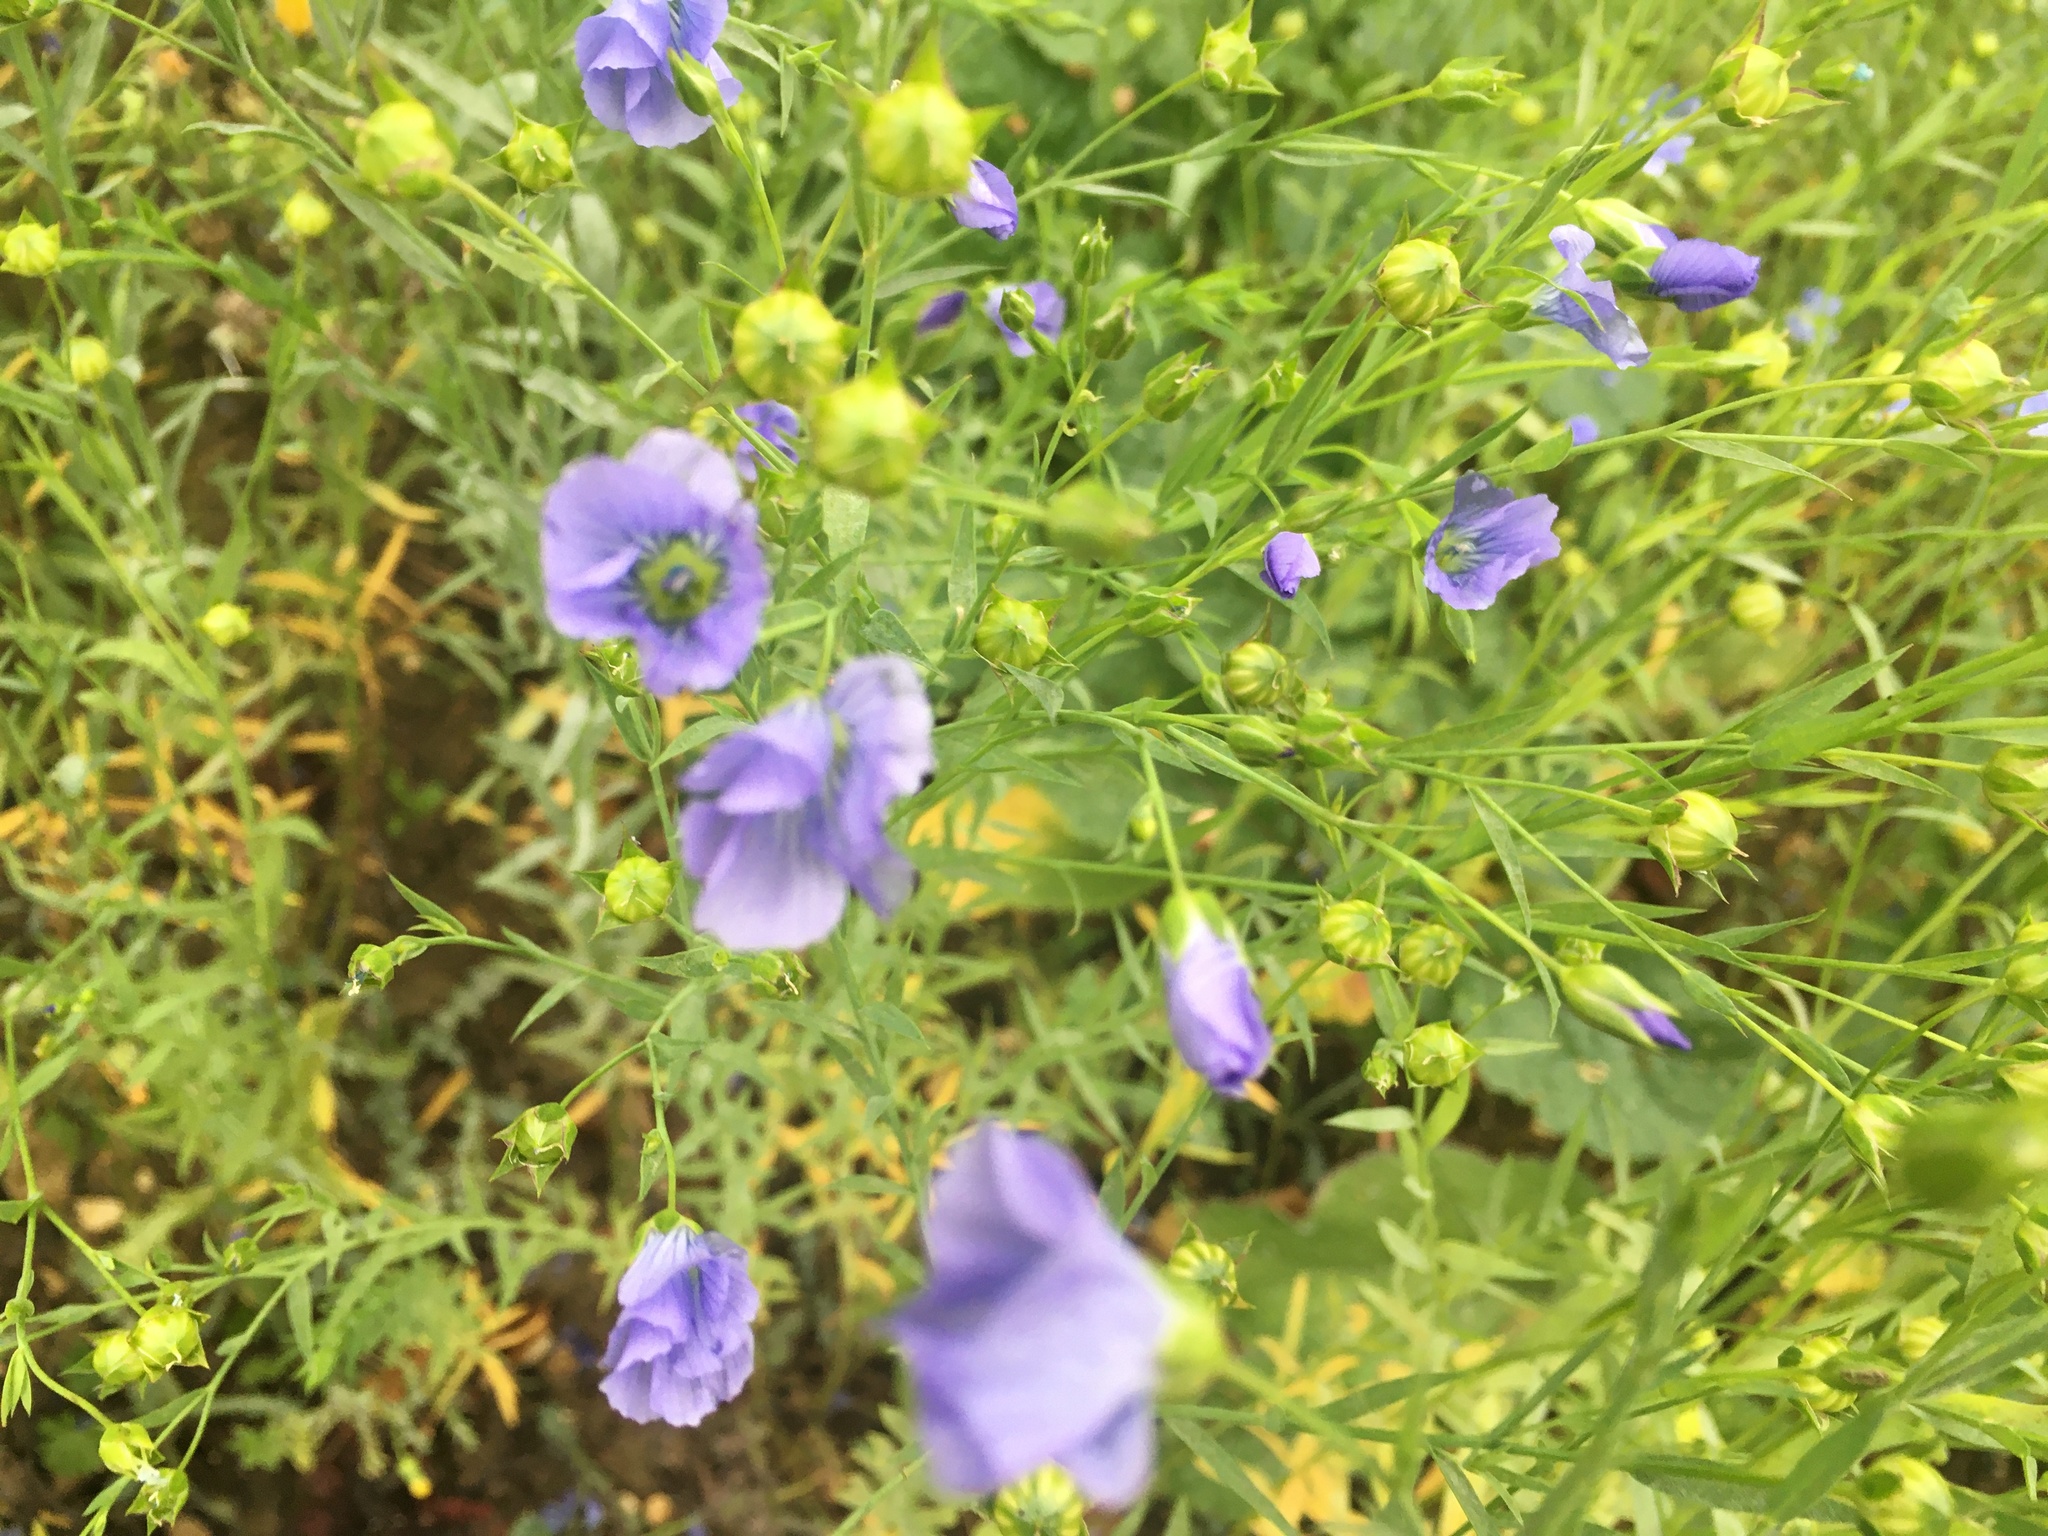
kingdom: Plantae
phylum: Tracheophyta
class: Magnoliopsida
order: Malpighiales
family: Linaceae
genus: Linum
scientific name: Linum usitatissimum
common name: Flax
